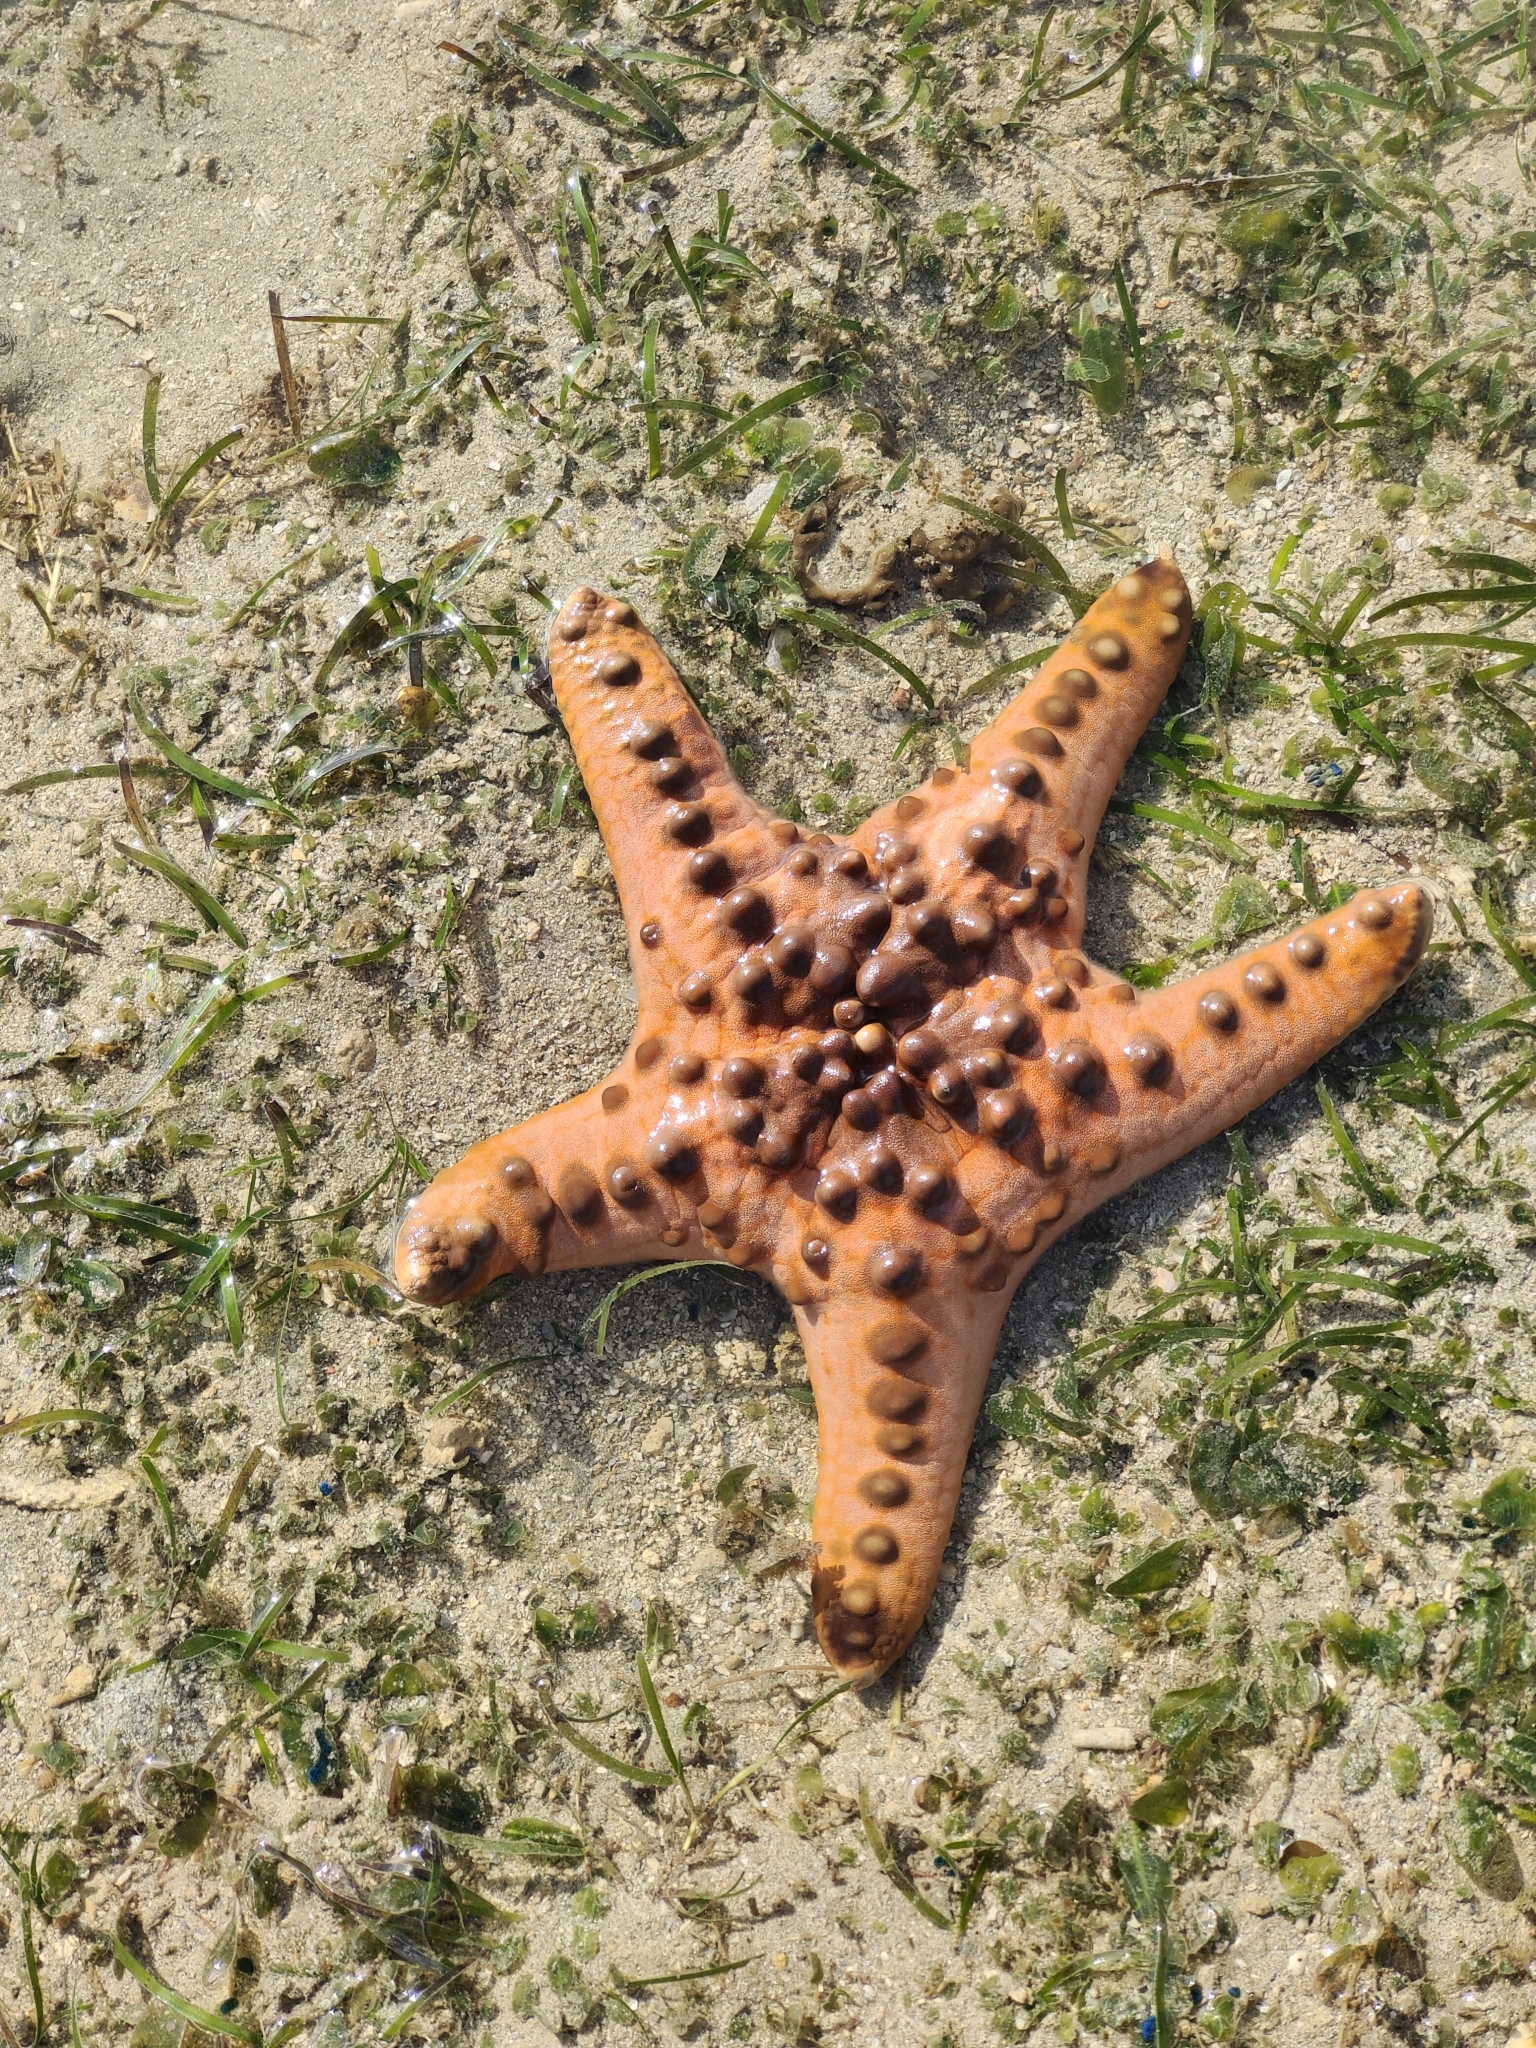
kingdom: Animalia
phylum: Echinodermata
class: Asteroidea
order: Valvatida
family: Oreasteridae
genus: Protoreaster
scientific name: Protoreaster nodosus
